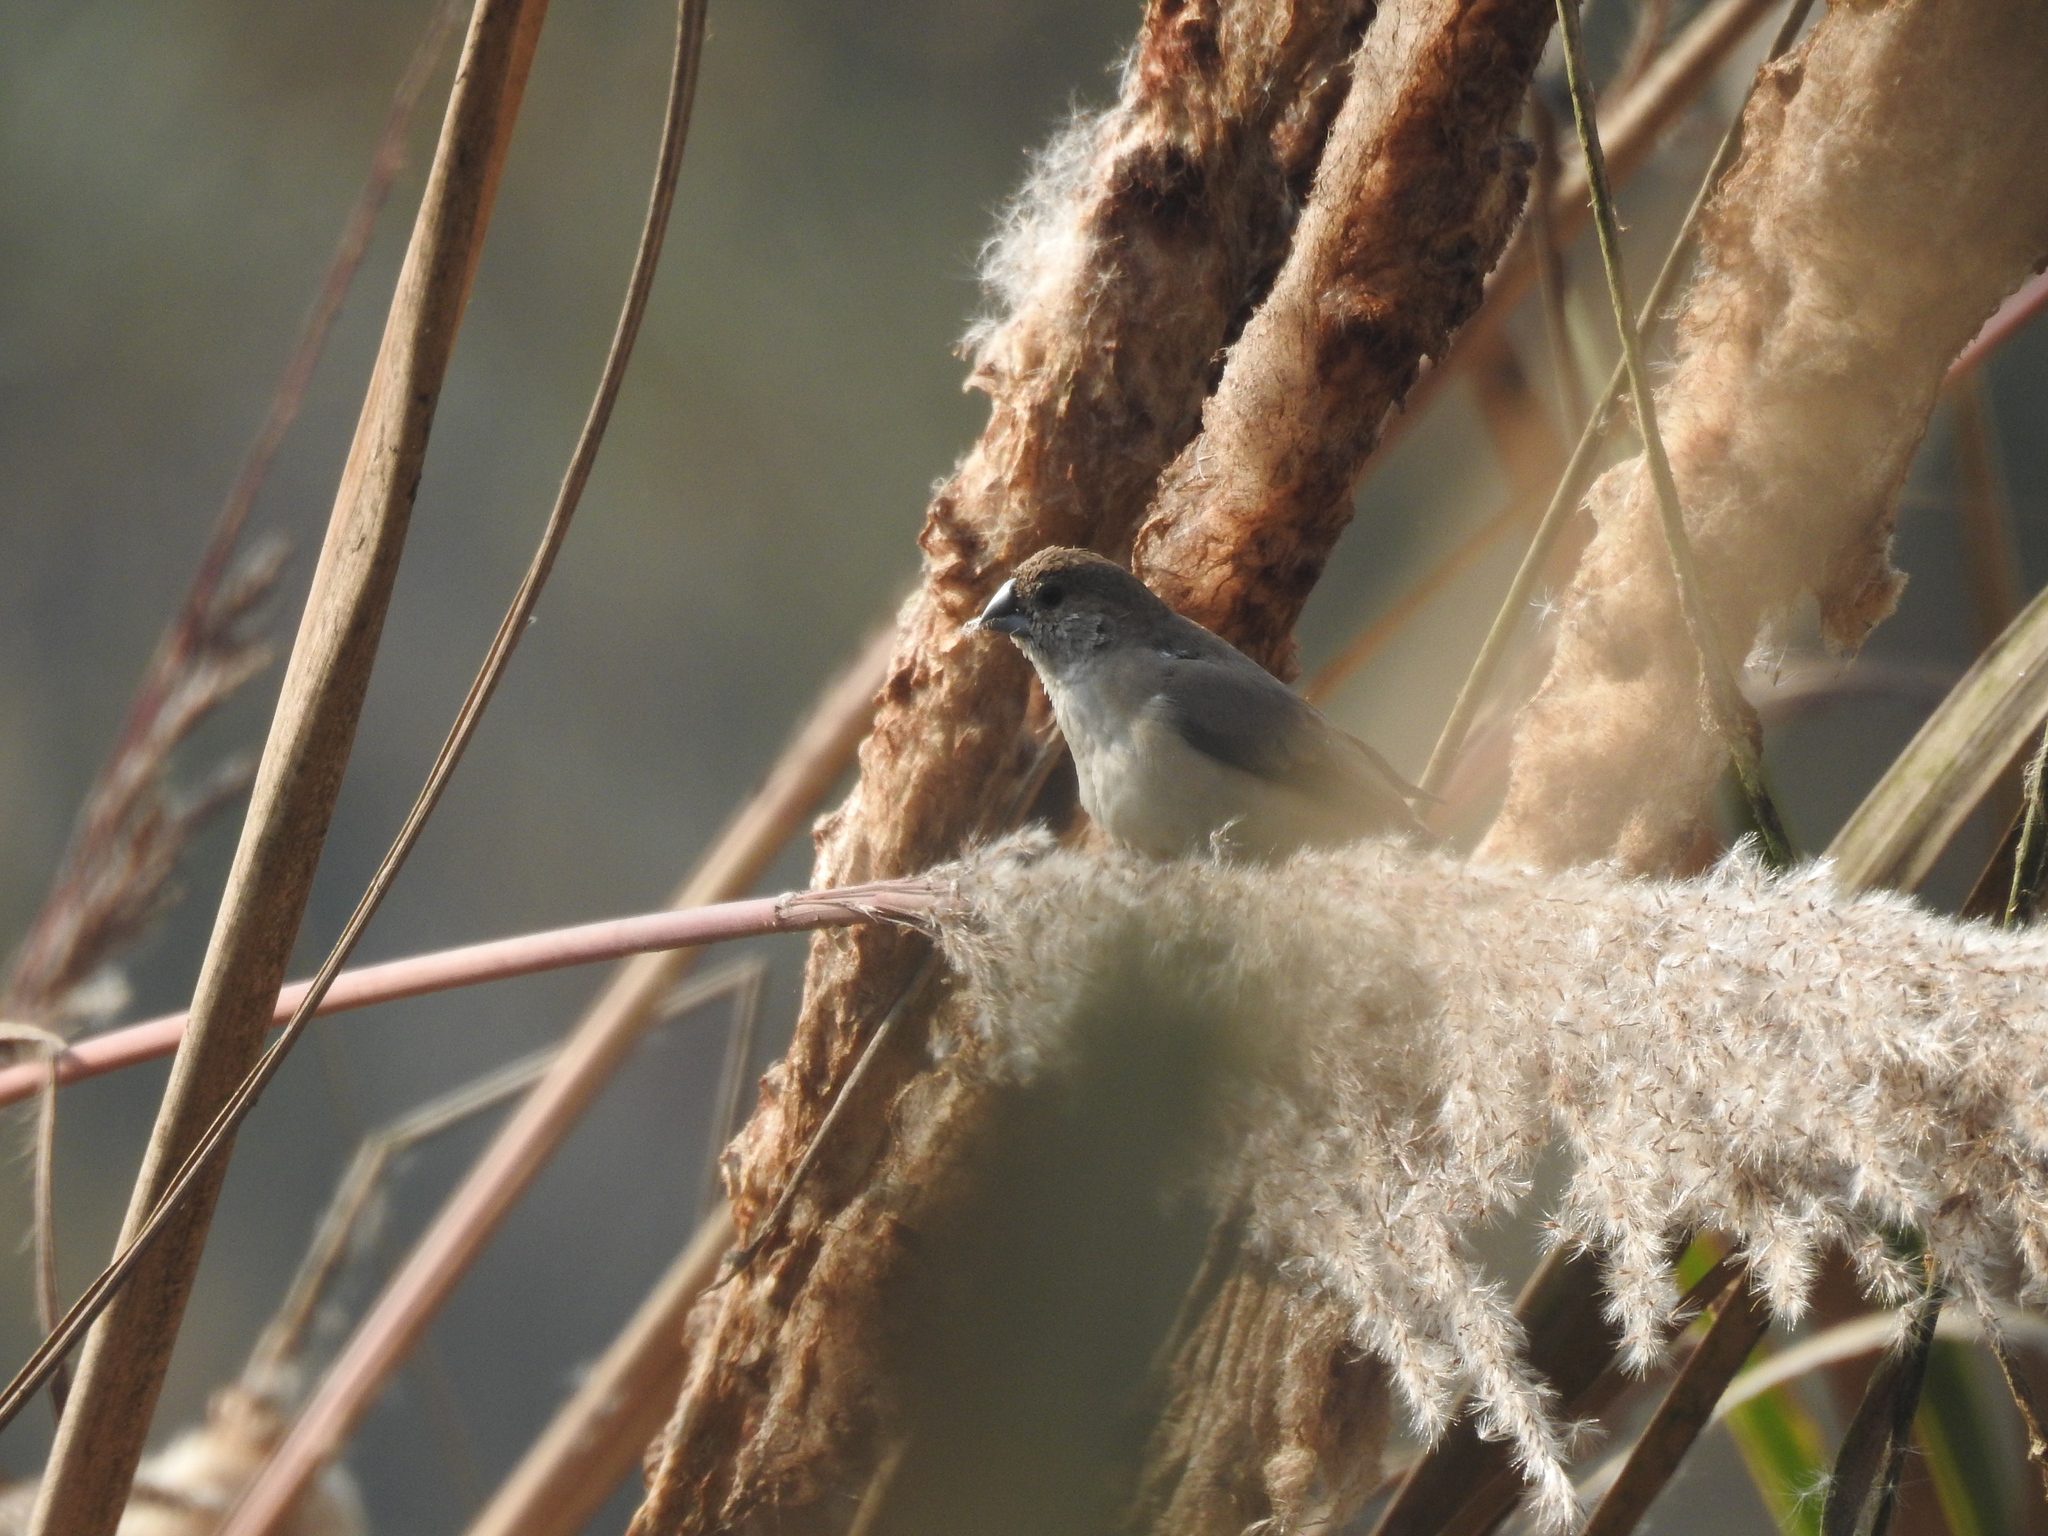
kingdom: Animalia
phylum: Chordata
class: Aves
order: Passeriformes
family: Estrildidae
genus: Euodice
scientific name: Euodice malabarica
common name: Indian silverbill
